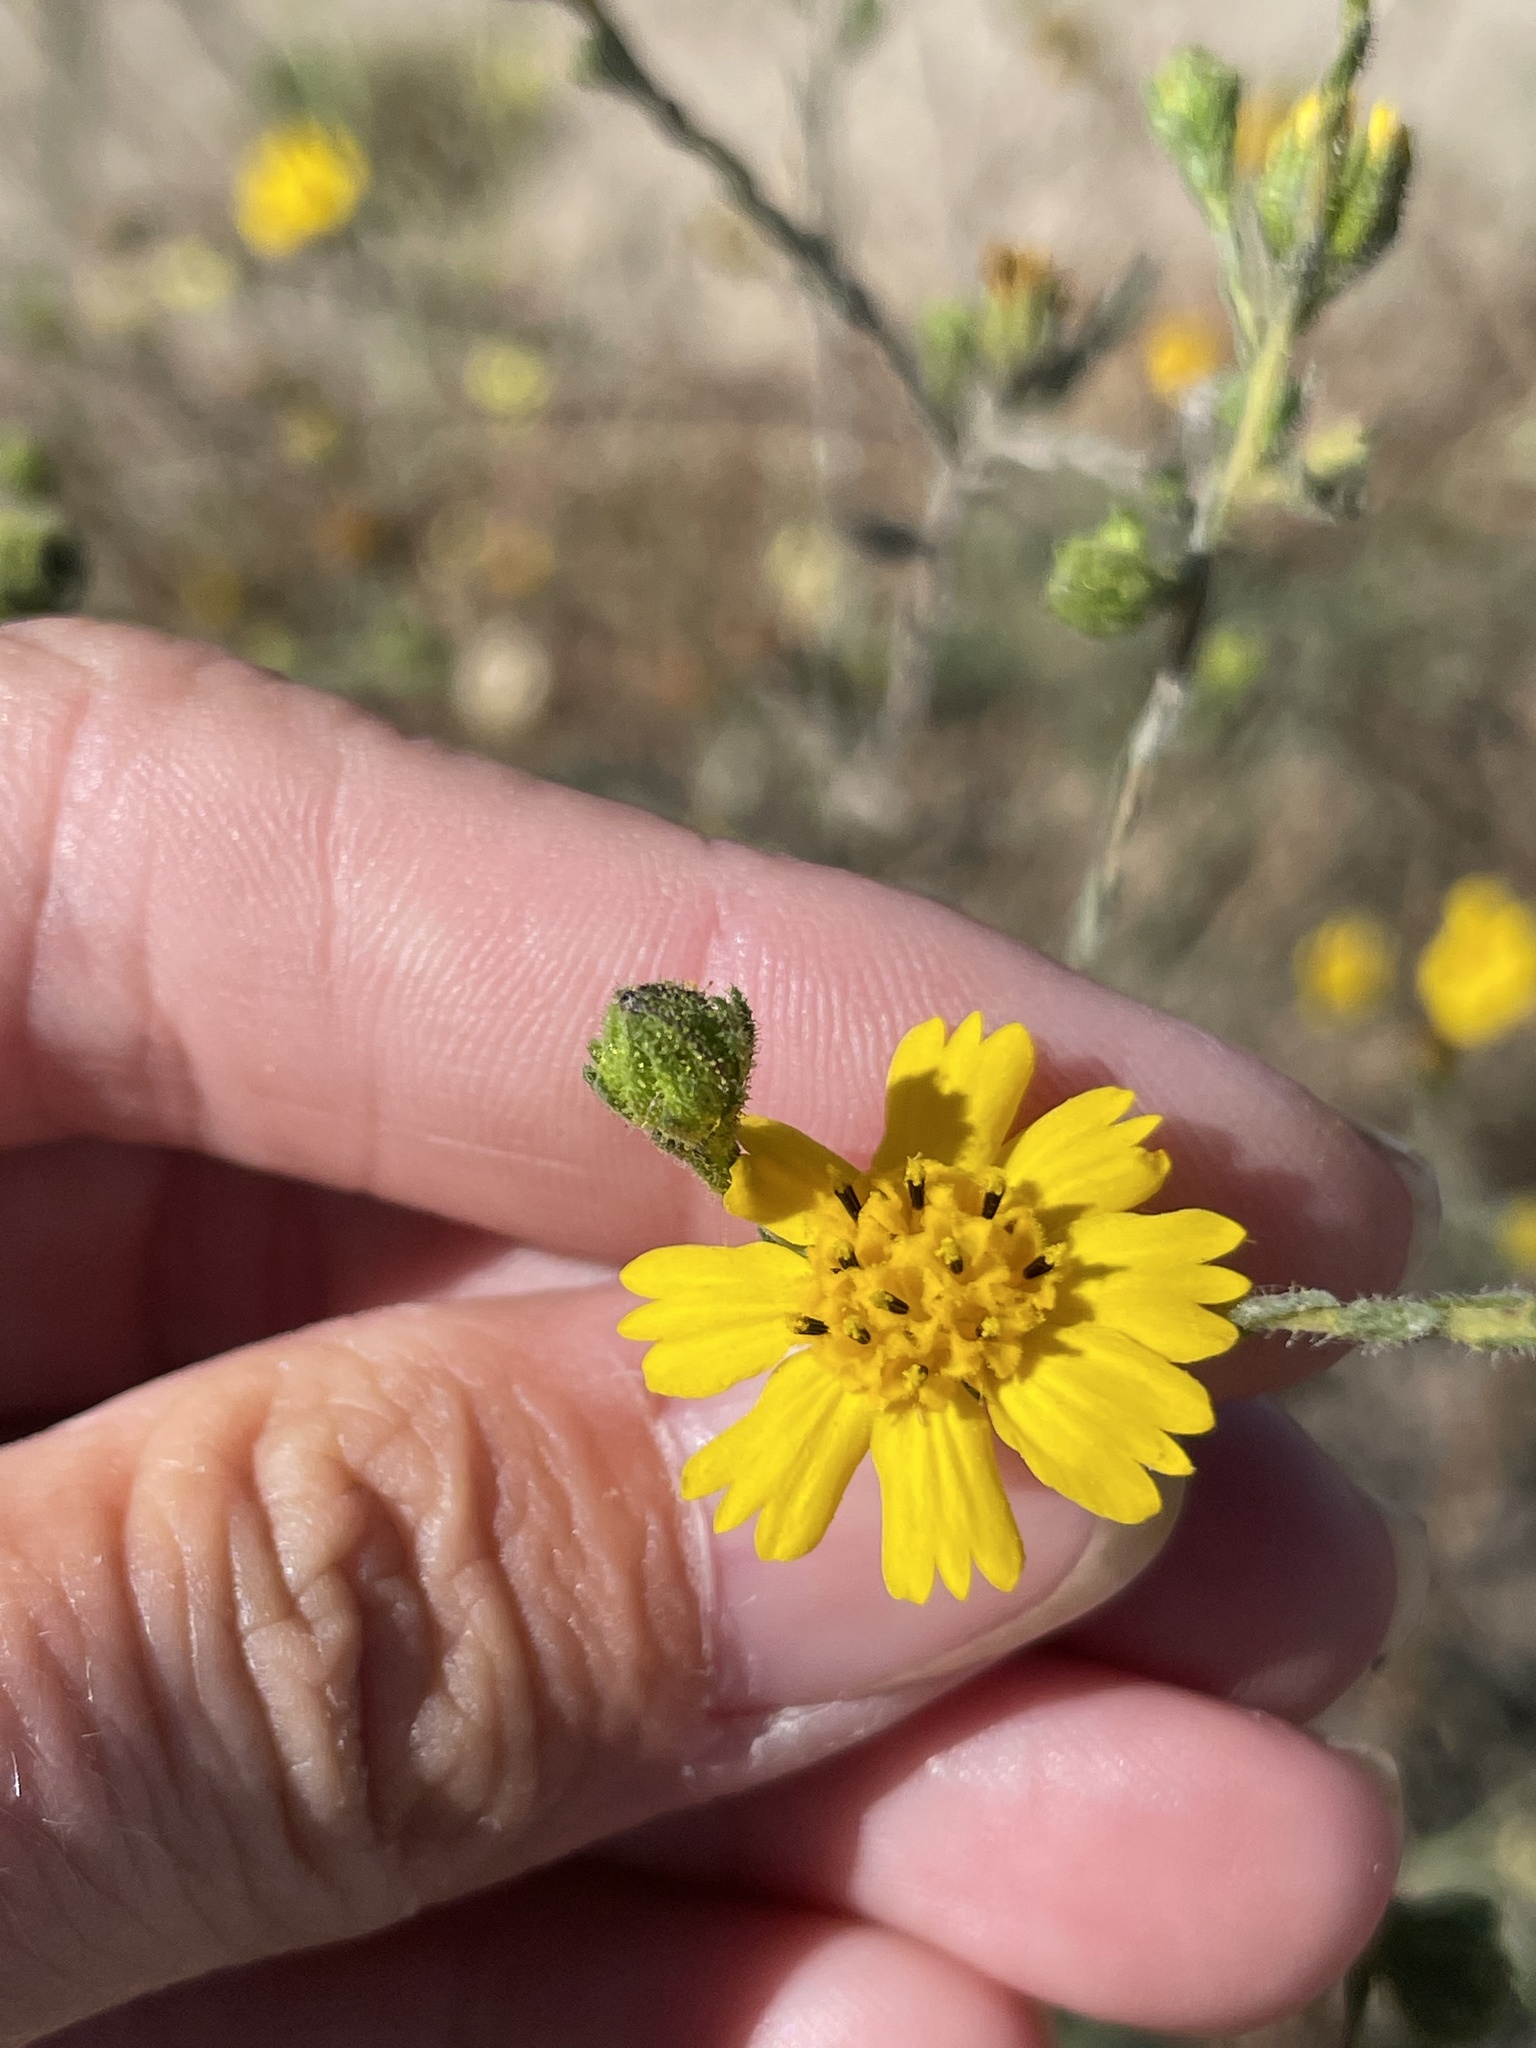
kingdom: Plantae
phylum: Tracheophyta
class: Magnoliopsida
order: Asterales
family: Asteraceae
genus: Deinandra
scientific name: Deinandra conjugens
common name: Otay tarplant
